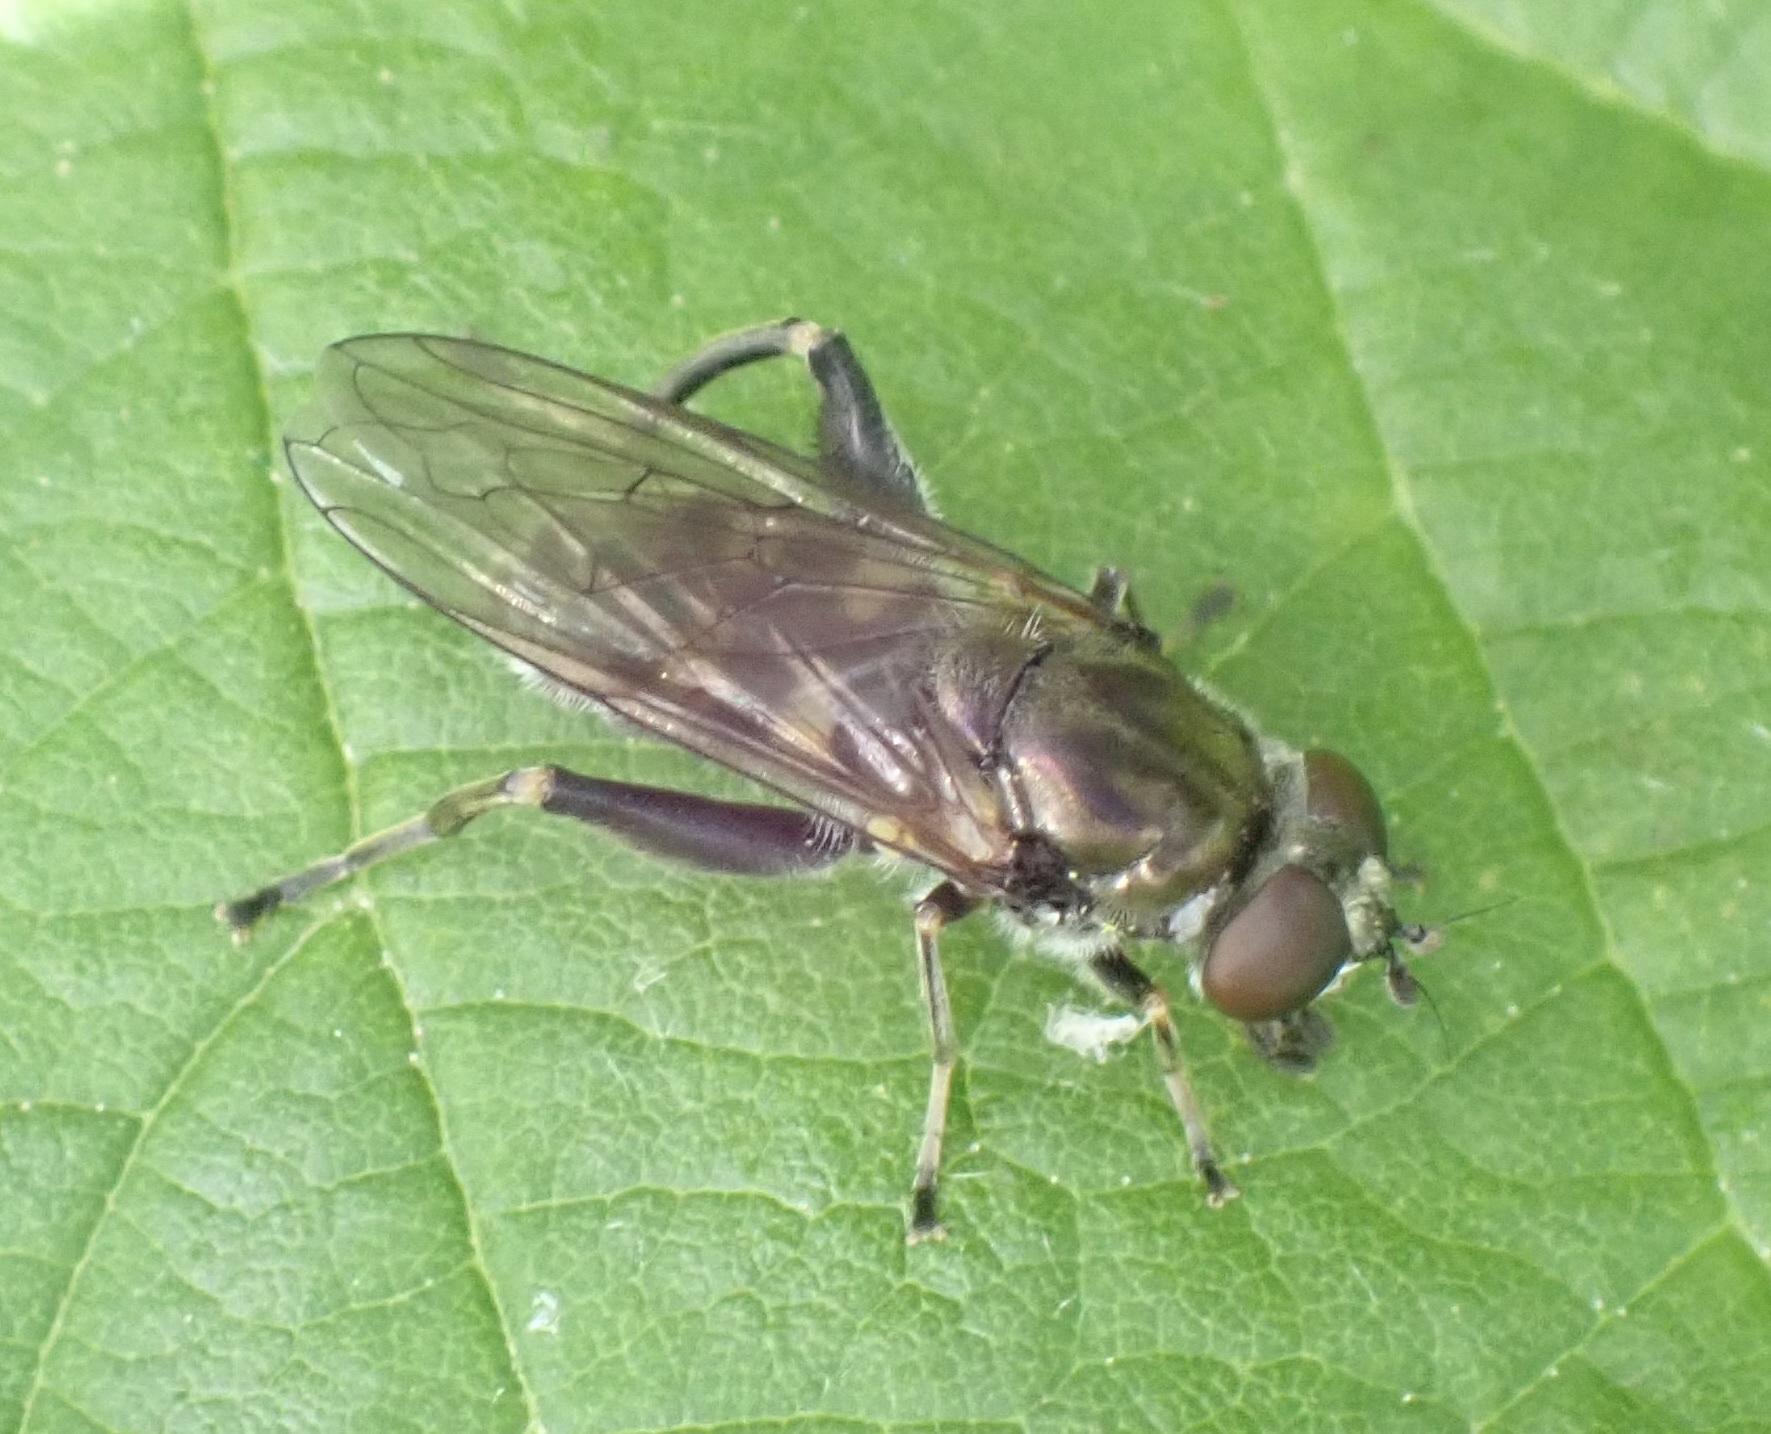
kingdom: Animalia
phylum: Arthropoda
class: Insecta
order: Diptera
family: Syrphidae
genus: Chalcosyrphus
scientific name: Chalcosyrphus nemorum
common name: Dusky-banded forest fly
